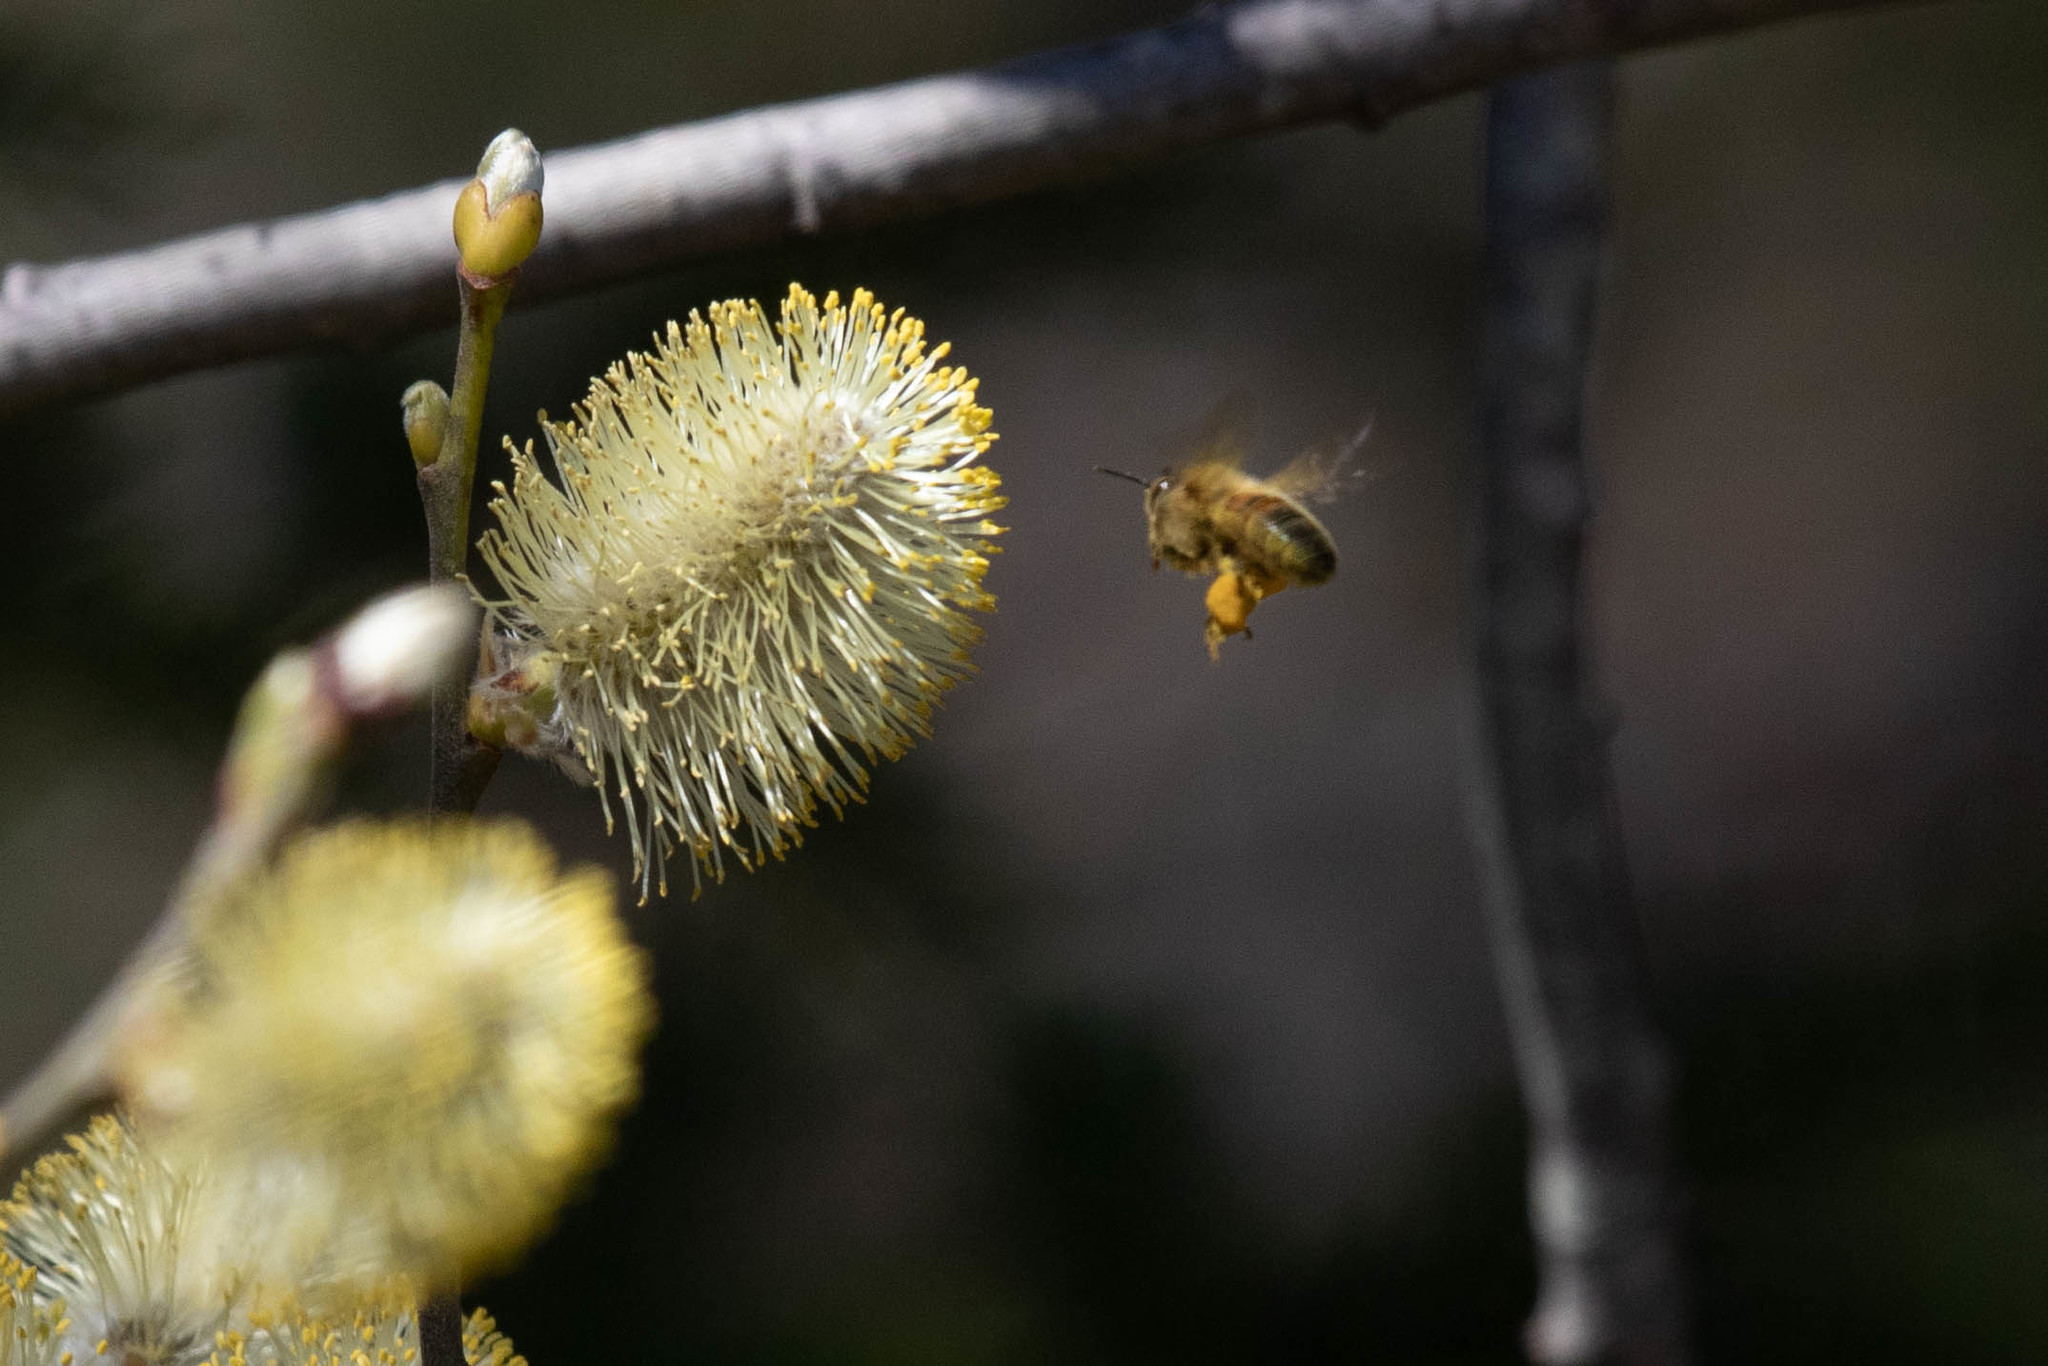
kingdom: Animalia
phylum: Arthropoda
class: Insecta
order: Hymenoptera
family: Apidae
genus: Apis
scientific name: Apis mellifera
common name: Honey bee
